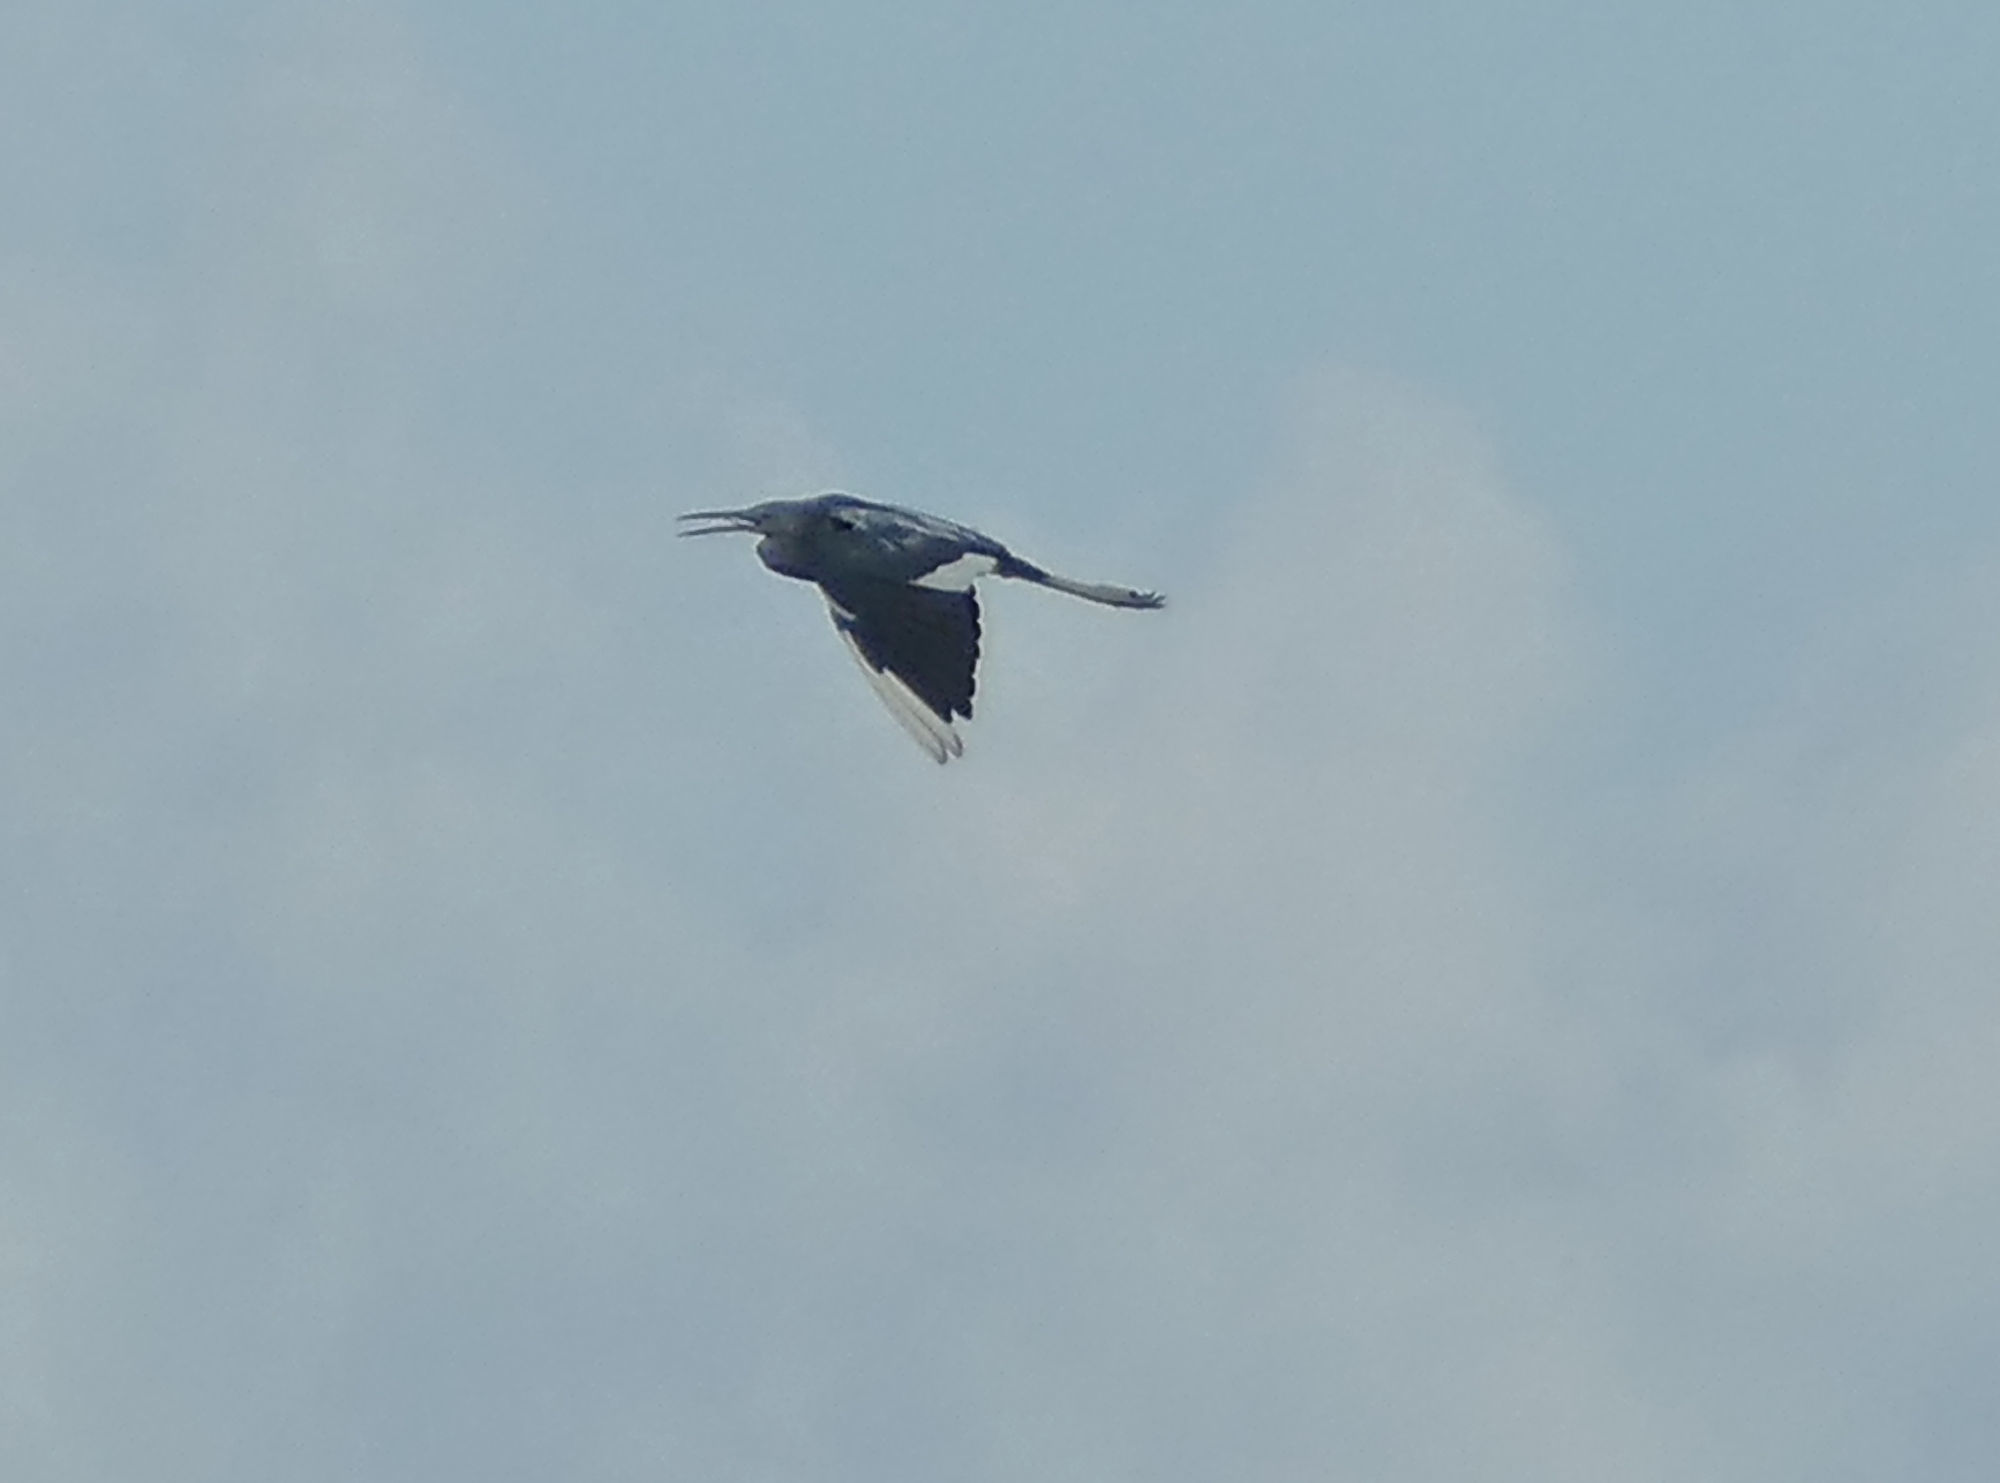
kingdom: Animalia
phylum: Chordata
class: Aves
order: Pelecaniformes
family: Ardeidae
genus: Egretta
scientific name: Egretta caerulea
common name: Little blue heron
